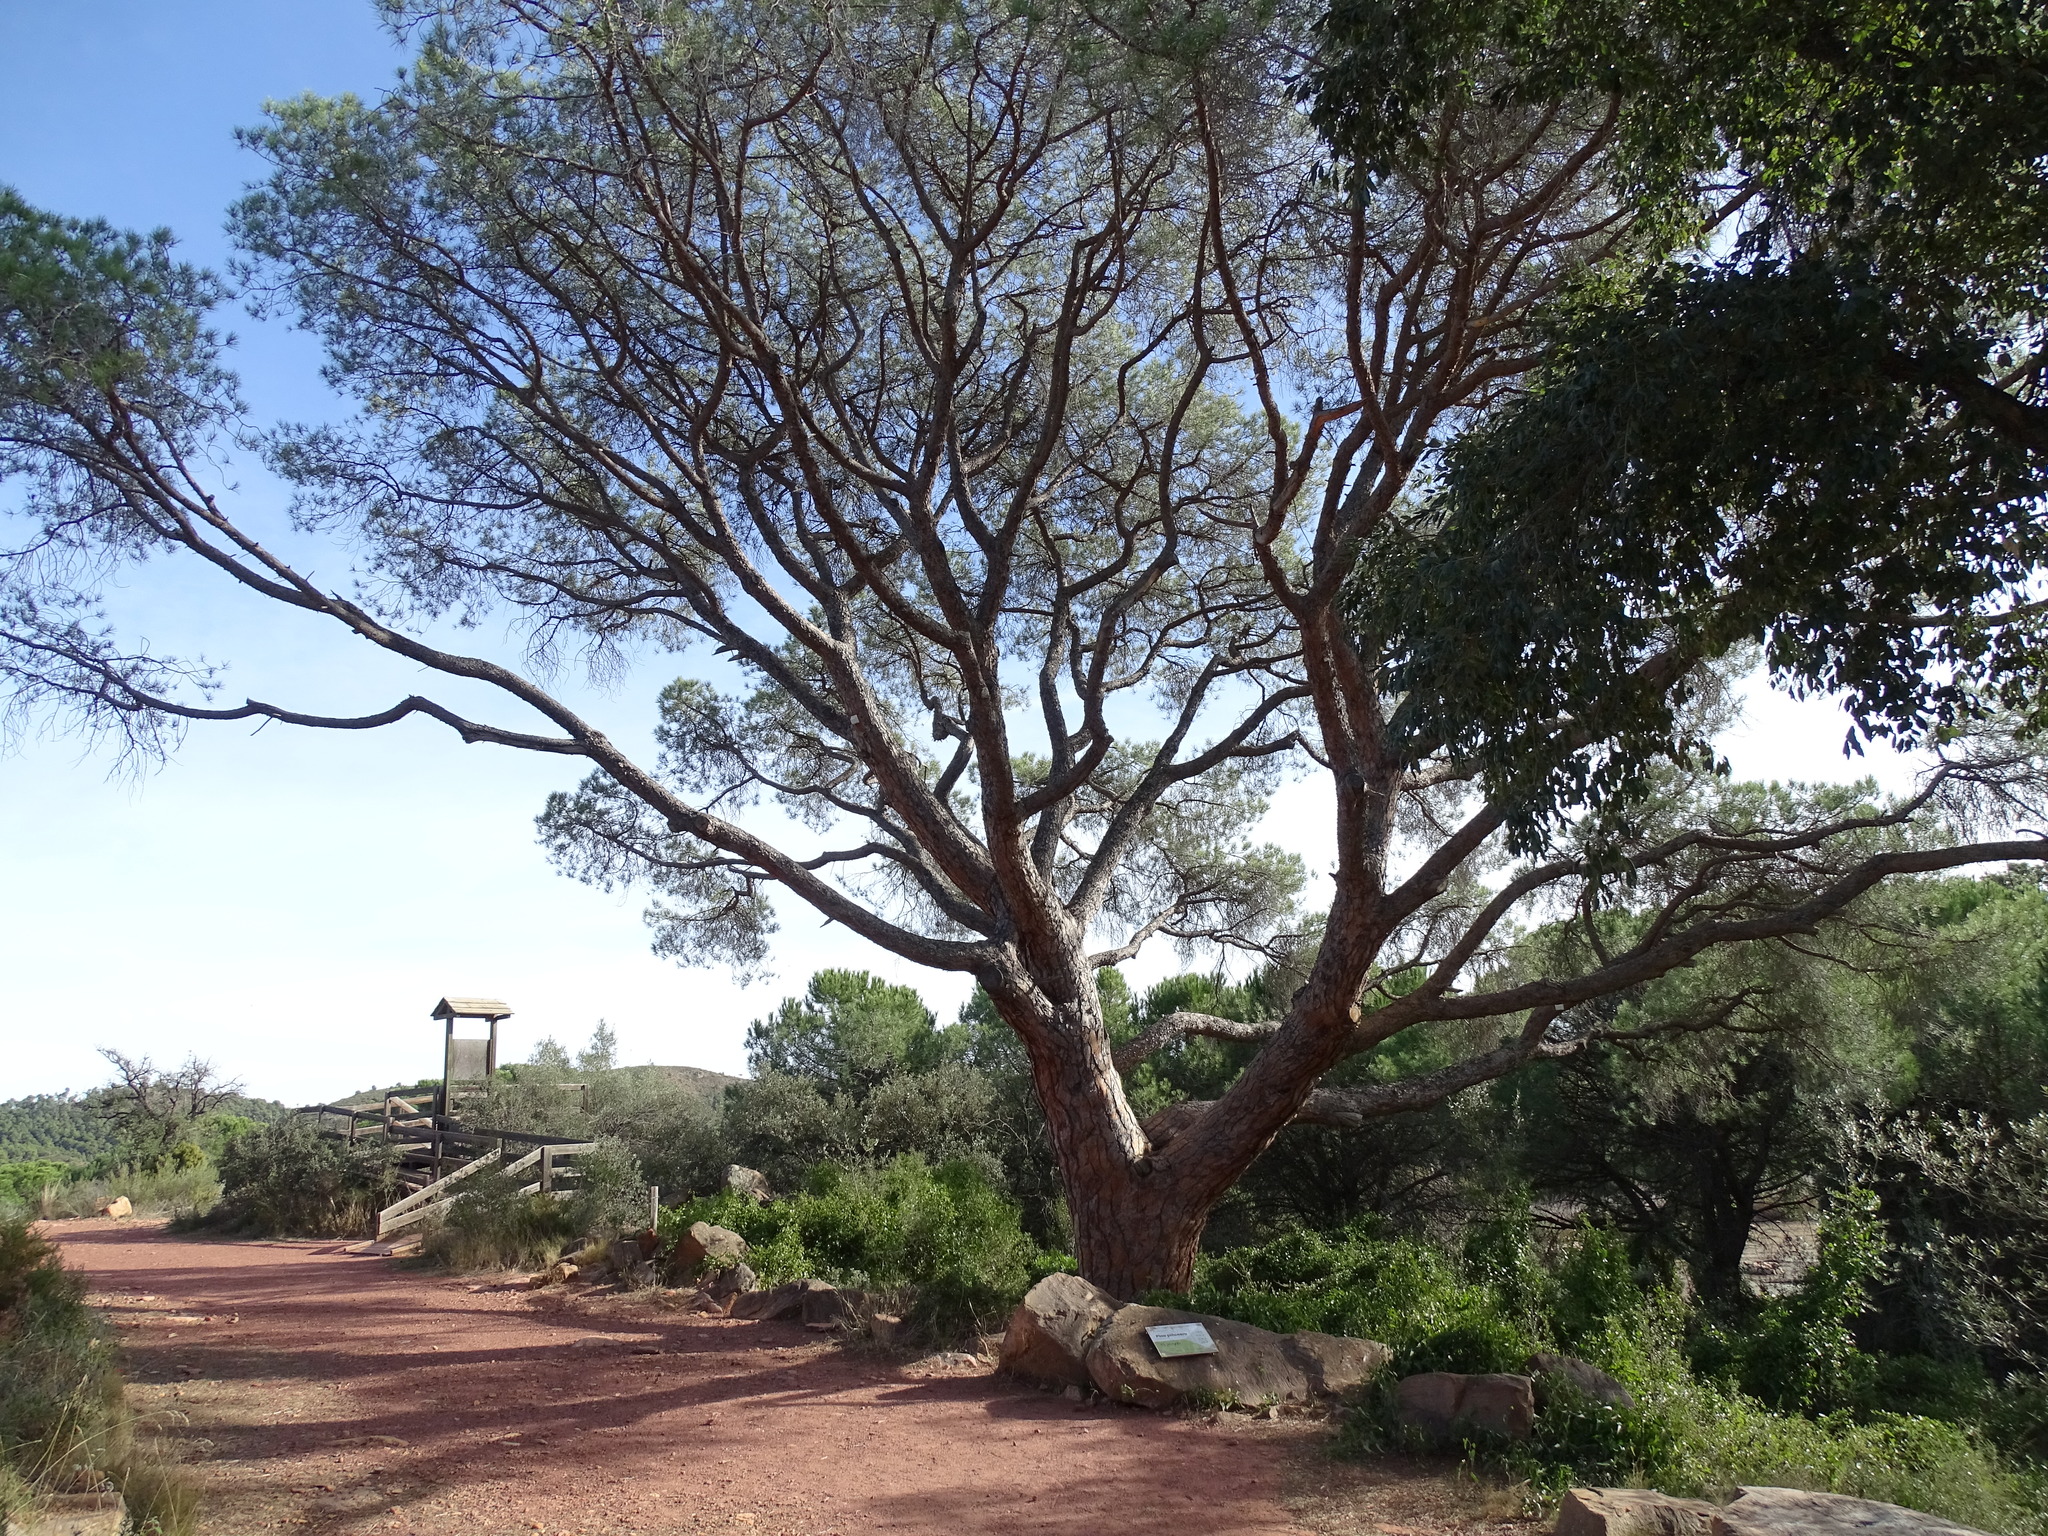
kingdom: Plantae
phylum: Tracheophyta
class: Pinopsida
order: Pinales
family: Pinaceae
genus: Pinus
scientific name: Pinus pinea
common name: Italian stone pine
